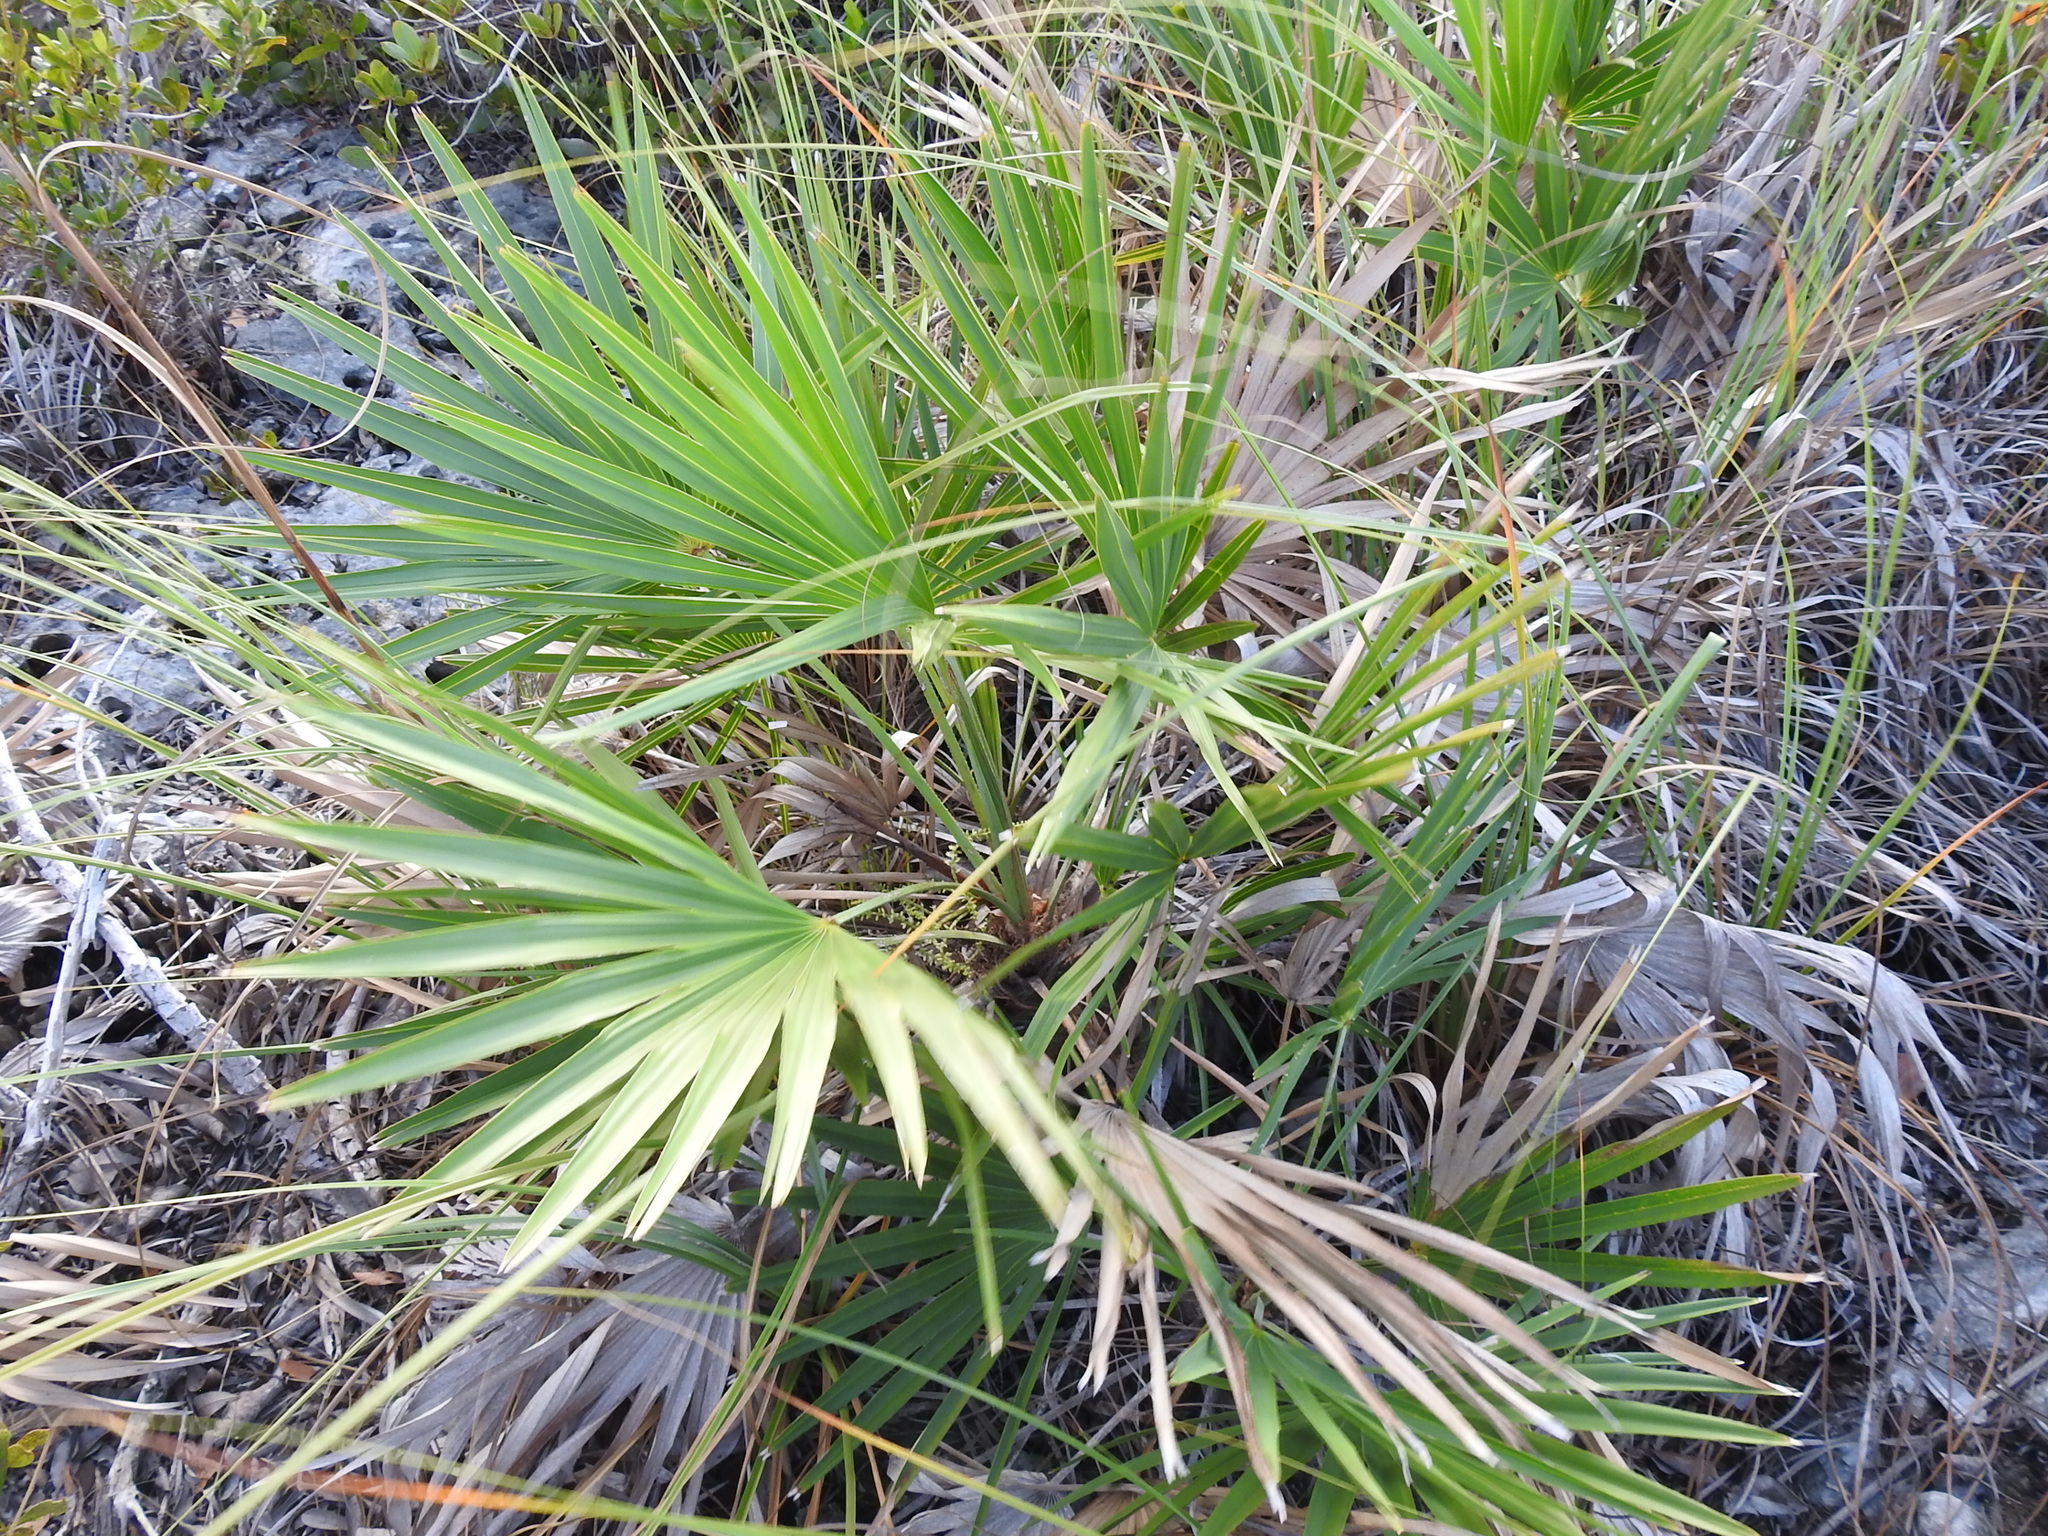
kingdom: Plantae
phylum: Tracheophyta
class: Liliopsida
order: Arecales
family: Arecaceae
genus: Serenoa
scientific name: Serenoa repens
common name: Saw-palmetto
